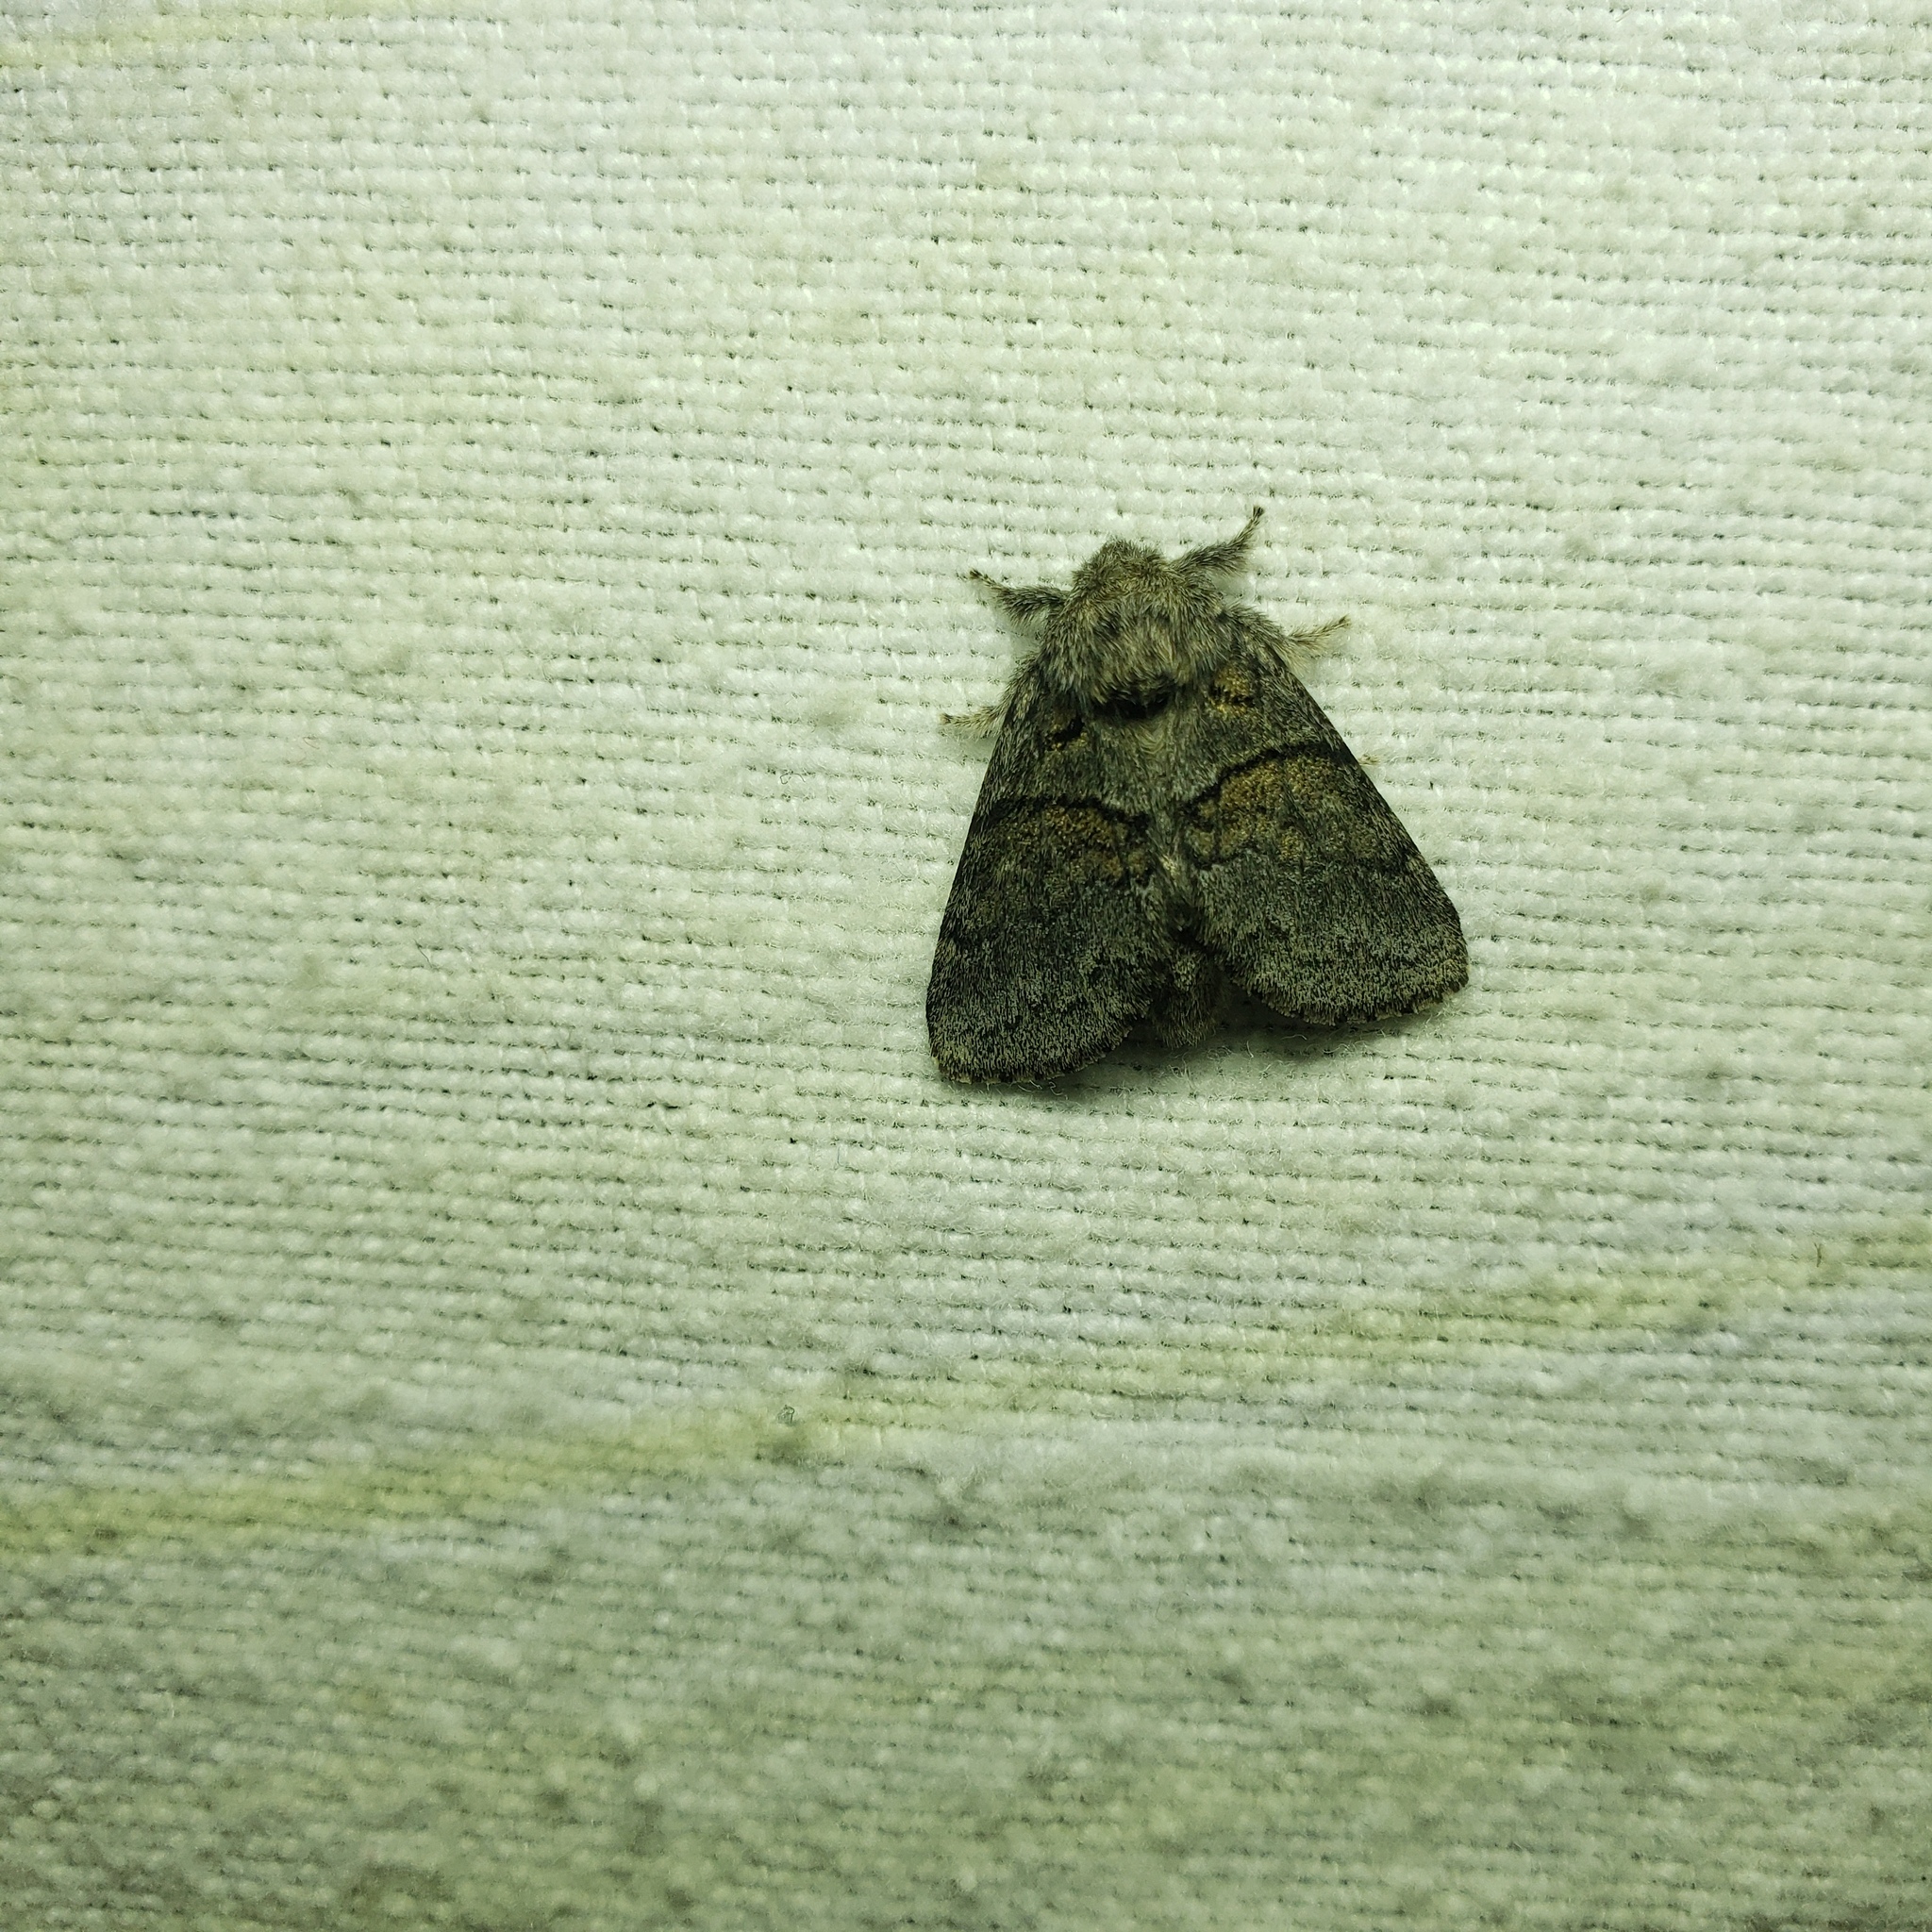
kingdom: Animalia
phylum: Arthropoda
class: Insecta
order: Lepidoptera
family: Notodontidae
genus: Gluphisia
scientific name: Gluphisia septentrionis
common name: Common gluphisia
